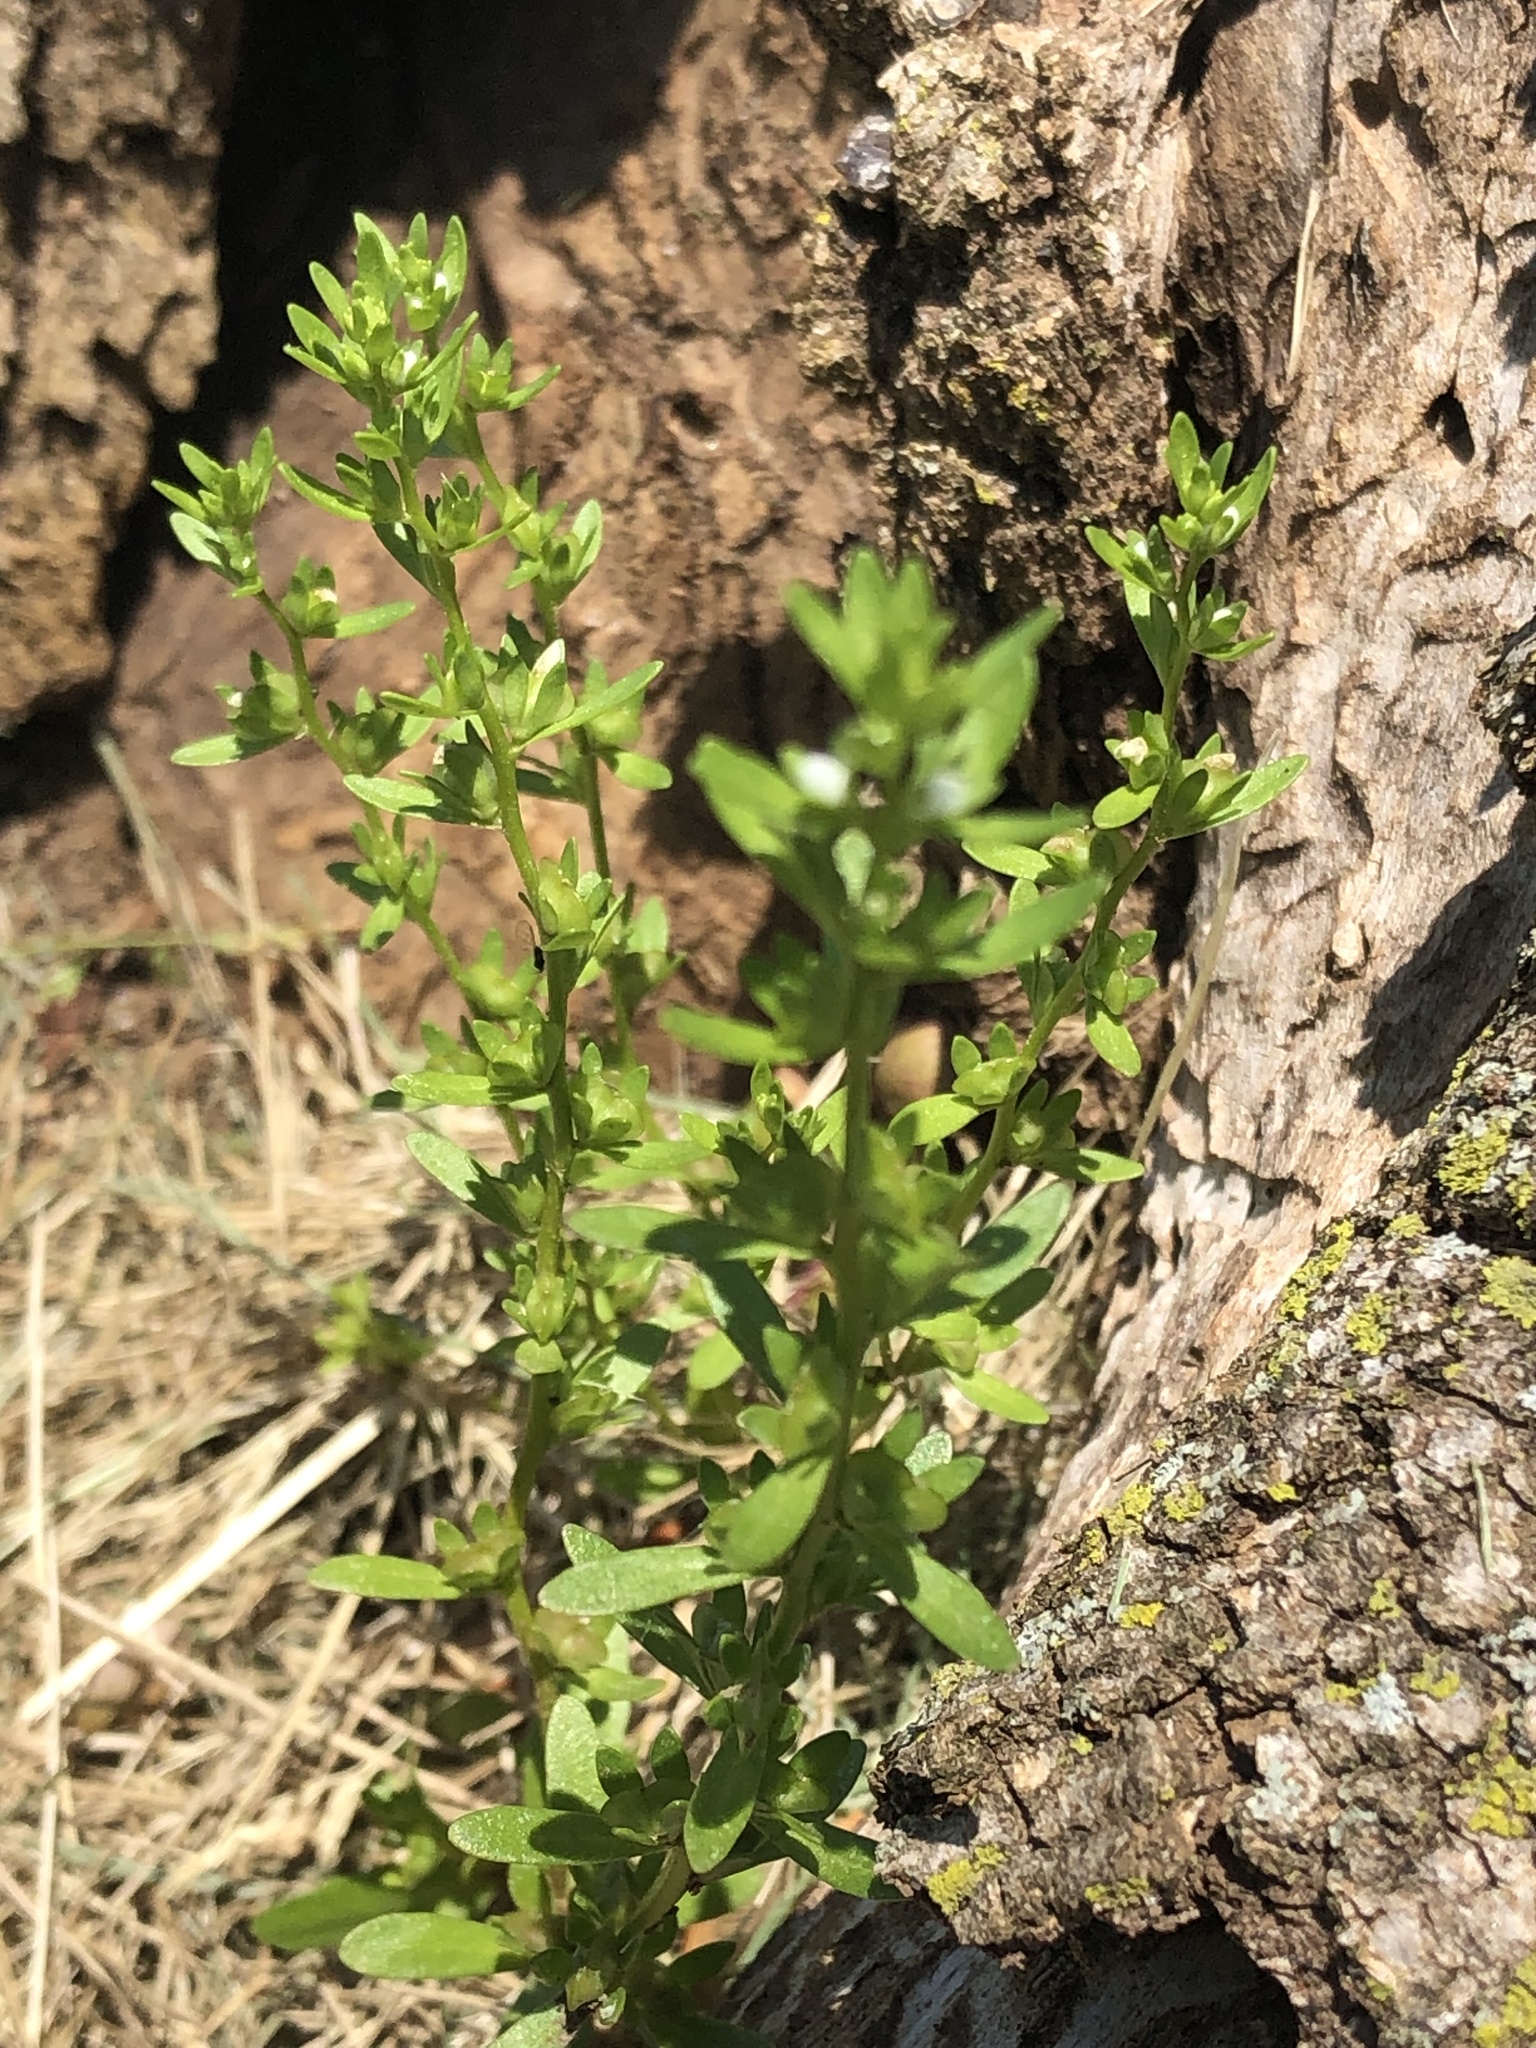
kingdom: Plantae
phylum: Tracheophyta
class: Magnoliopsida
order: Lamiales
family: Plantaginaceae
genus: Veronica
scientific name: Veronica peregrina
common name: Neckweed
